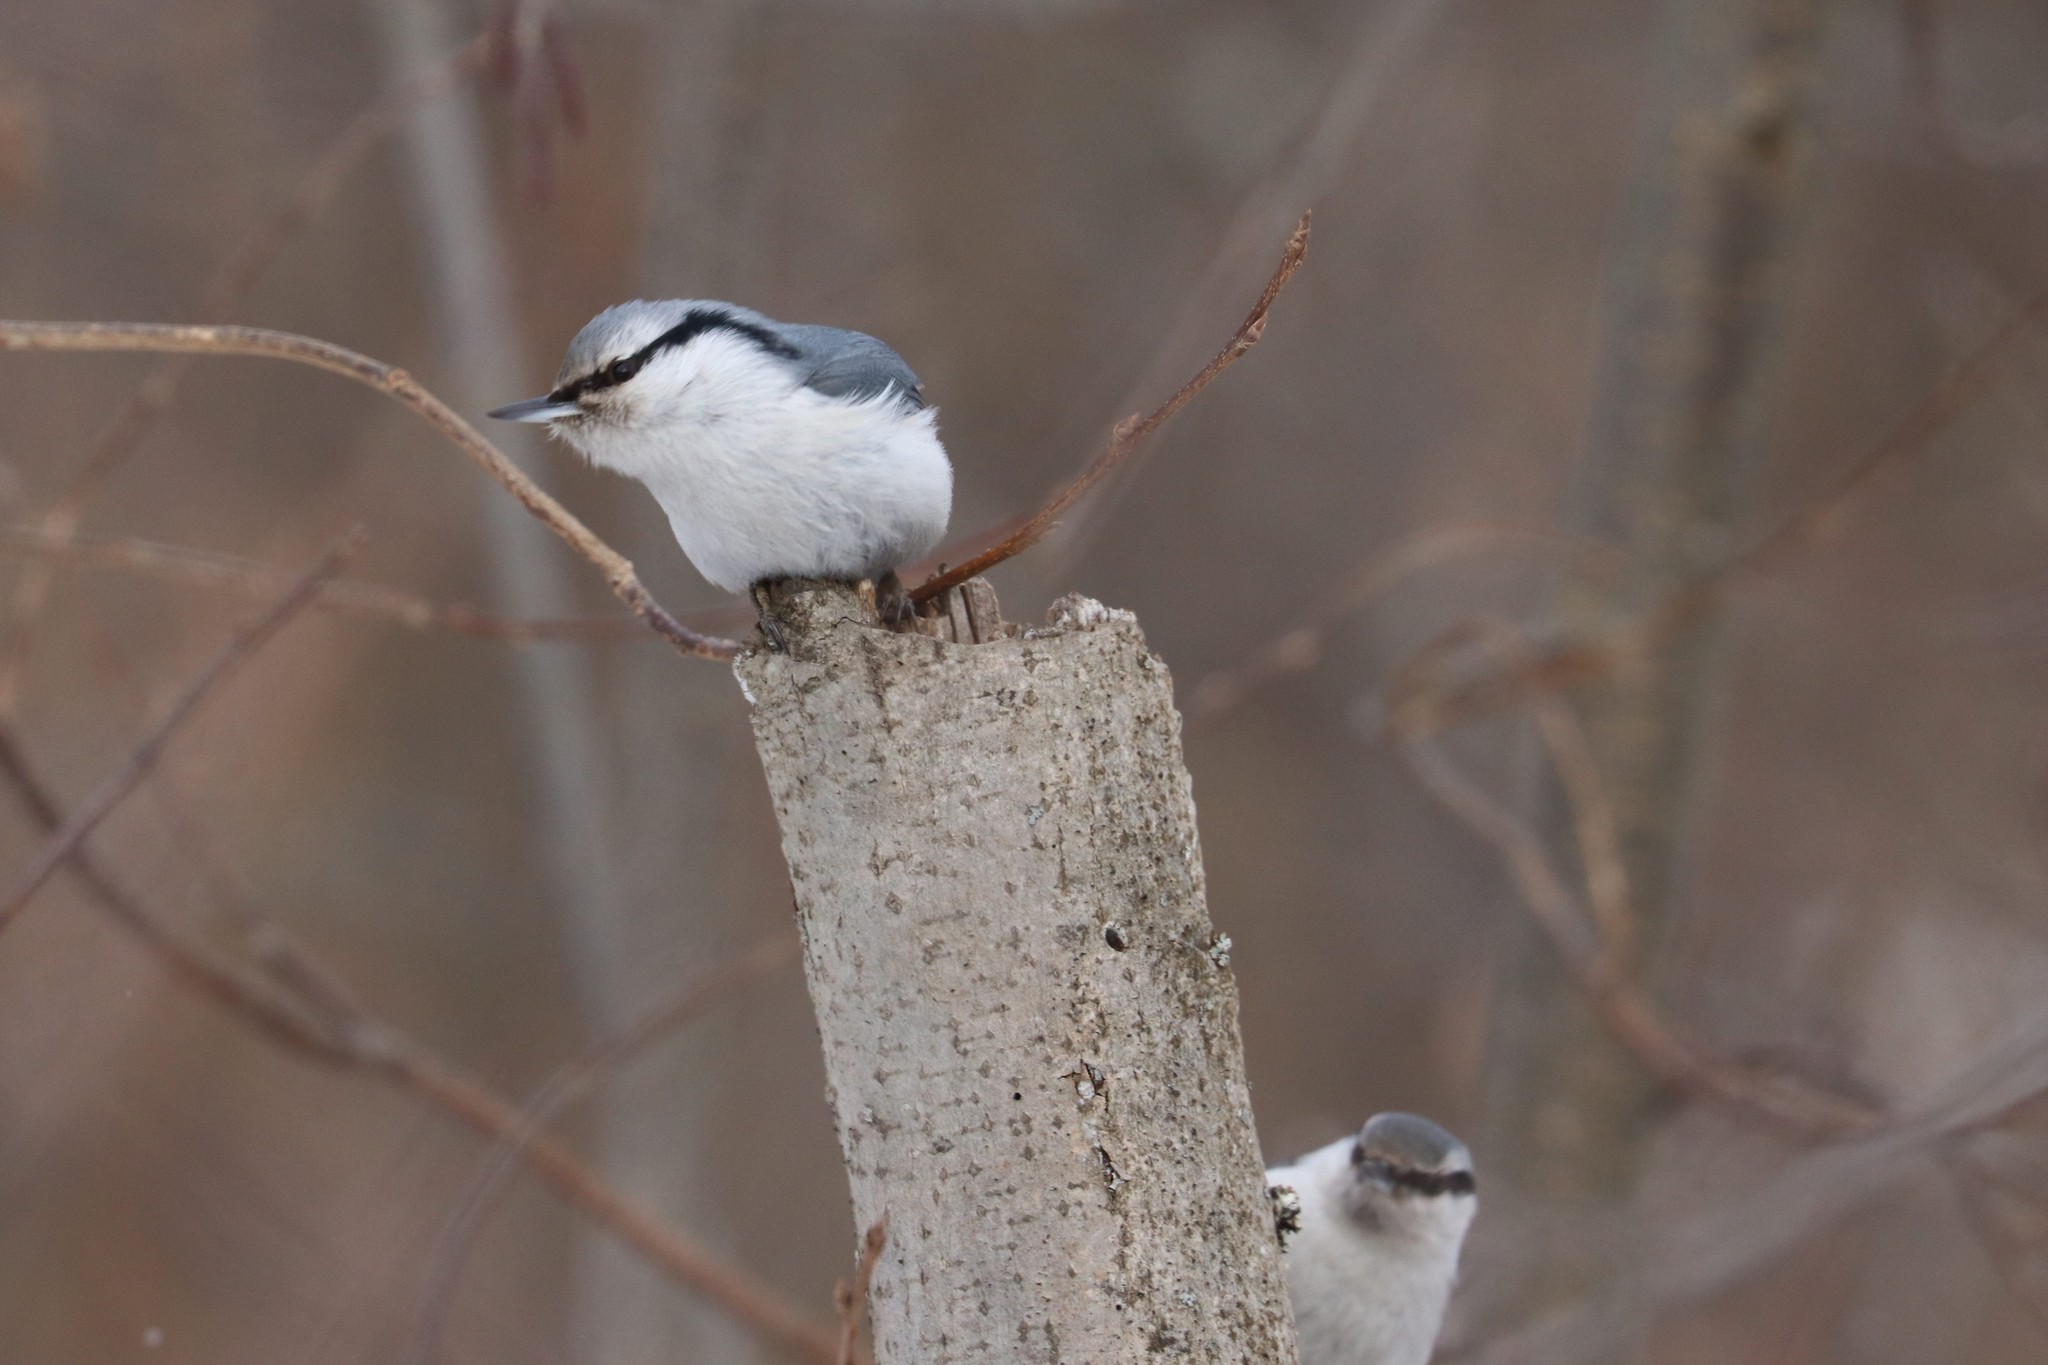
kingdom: Animalia
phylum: Chordata
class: Aves
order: Passeriformes
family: Sittidae
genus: Sitta
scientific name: Sitta europaea
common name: Eurasian nuthatch
